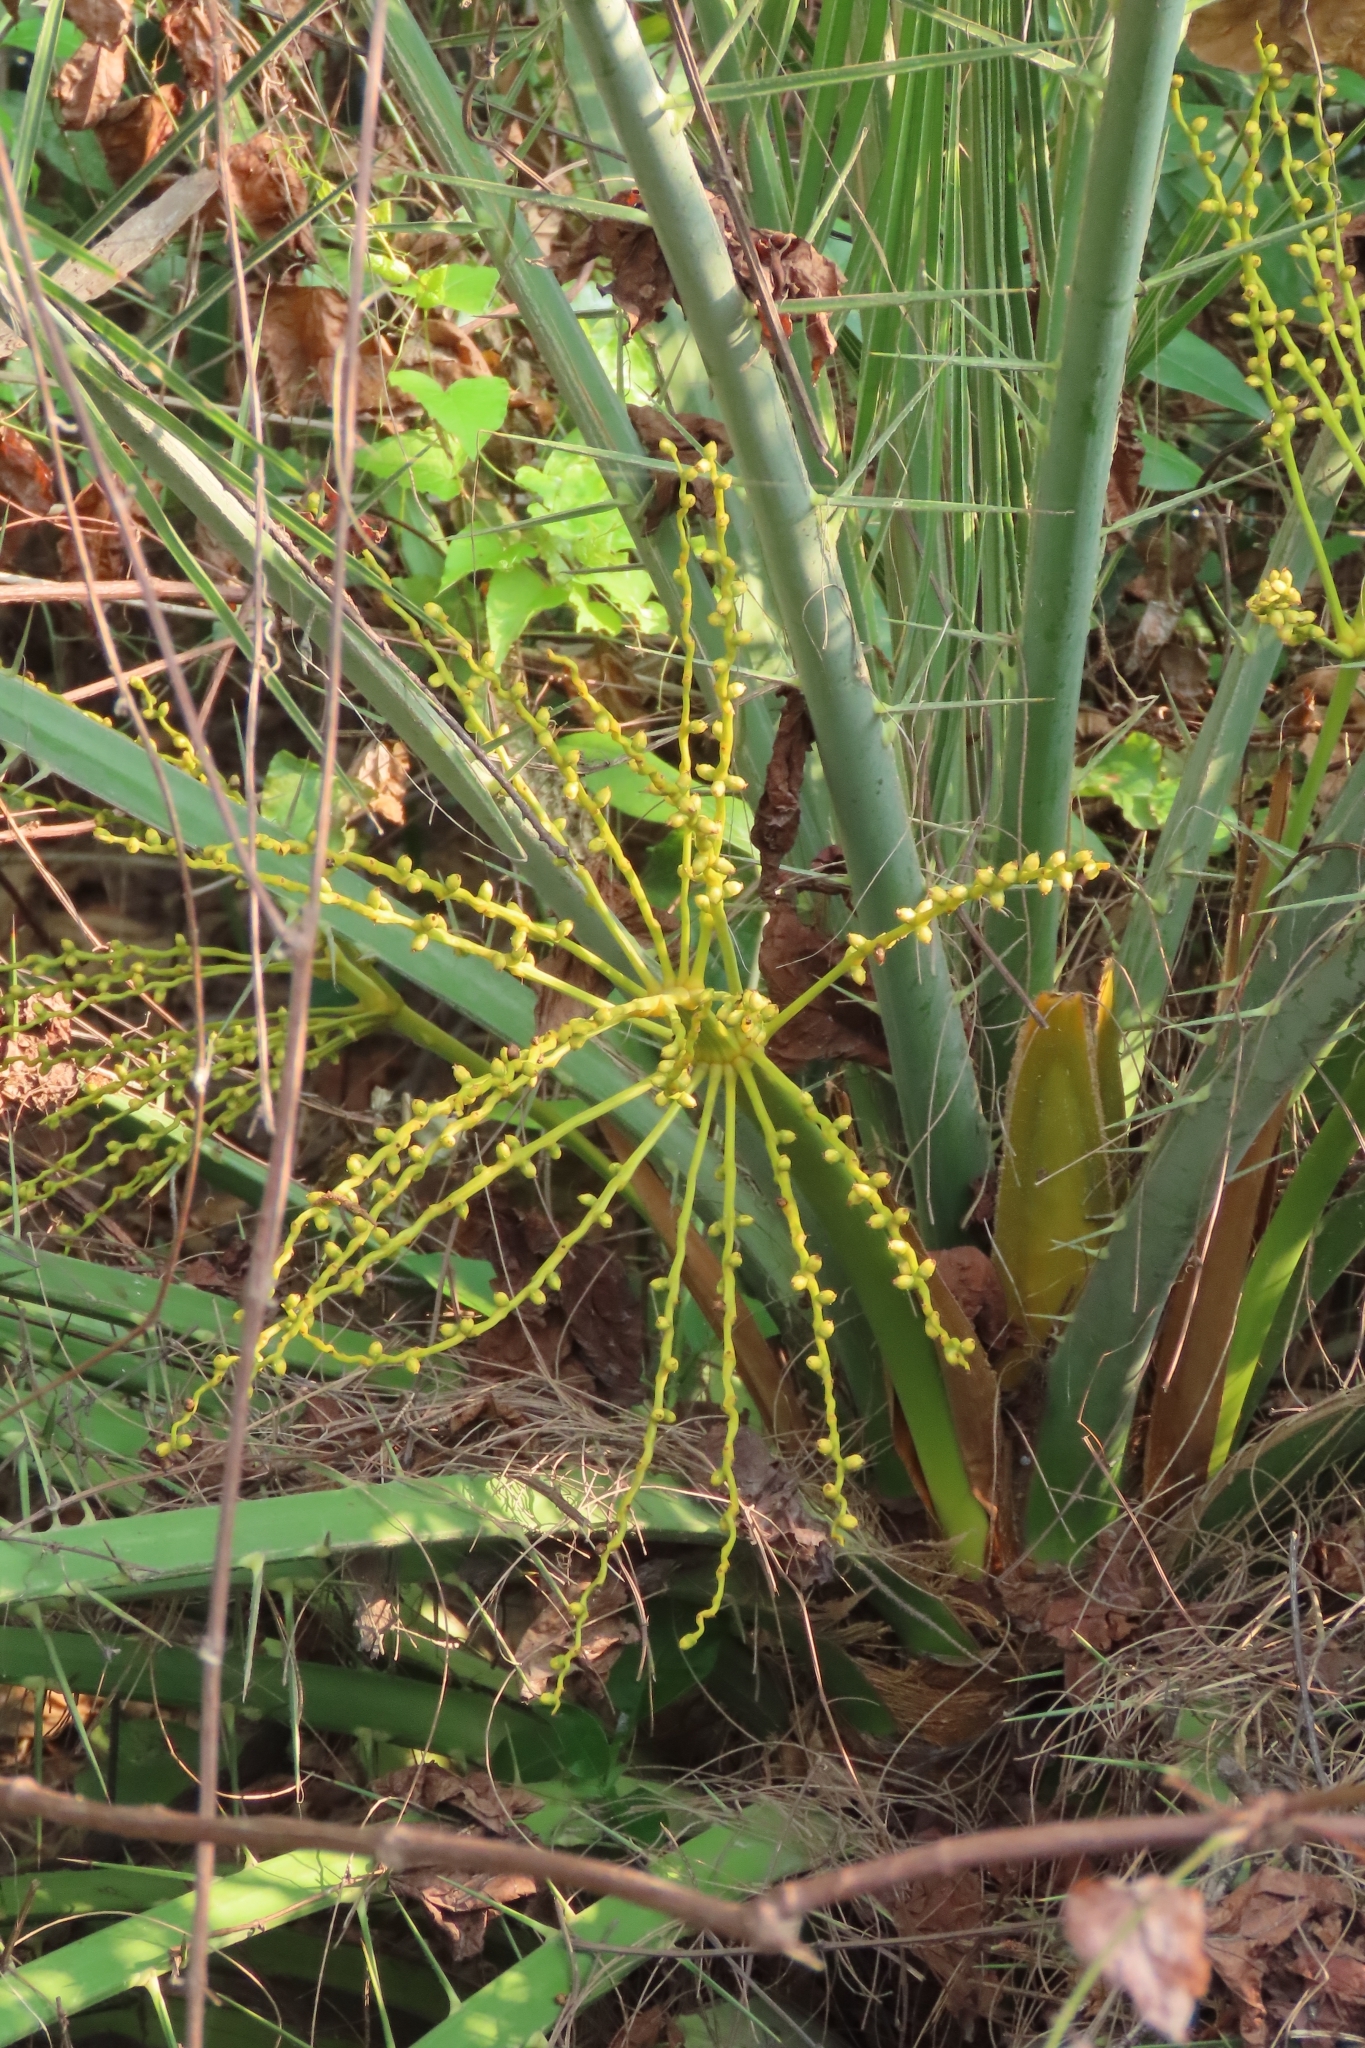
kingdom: Plantae
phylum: Tracheophyta
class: Liliopsida
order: Arecales
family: Arecaceae
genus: Phoenix
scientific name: Phoenix loureiroi
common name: Loureiro's palm
